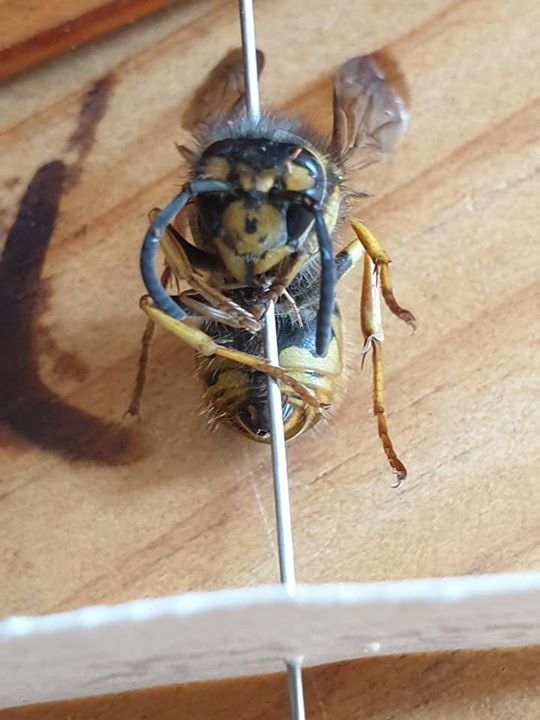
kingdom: Animalia
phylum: Arthropoda
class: Insecta
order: Hymenoptera
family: Vespidae
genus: Vespula
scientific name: Vespula germanica
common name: German wasp
